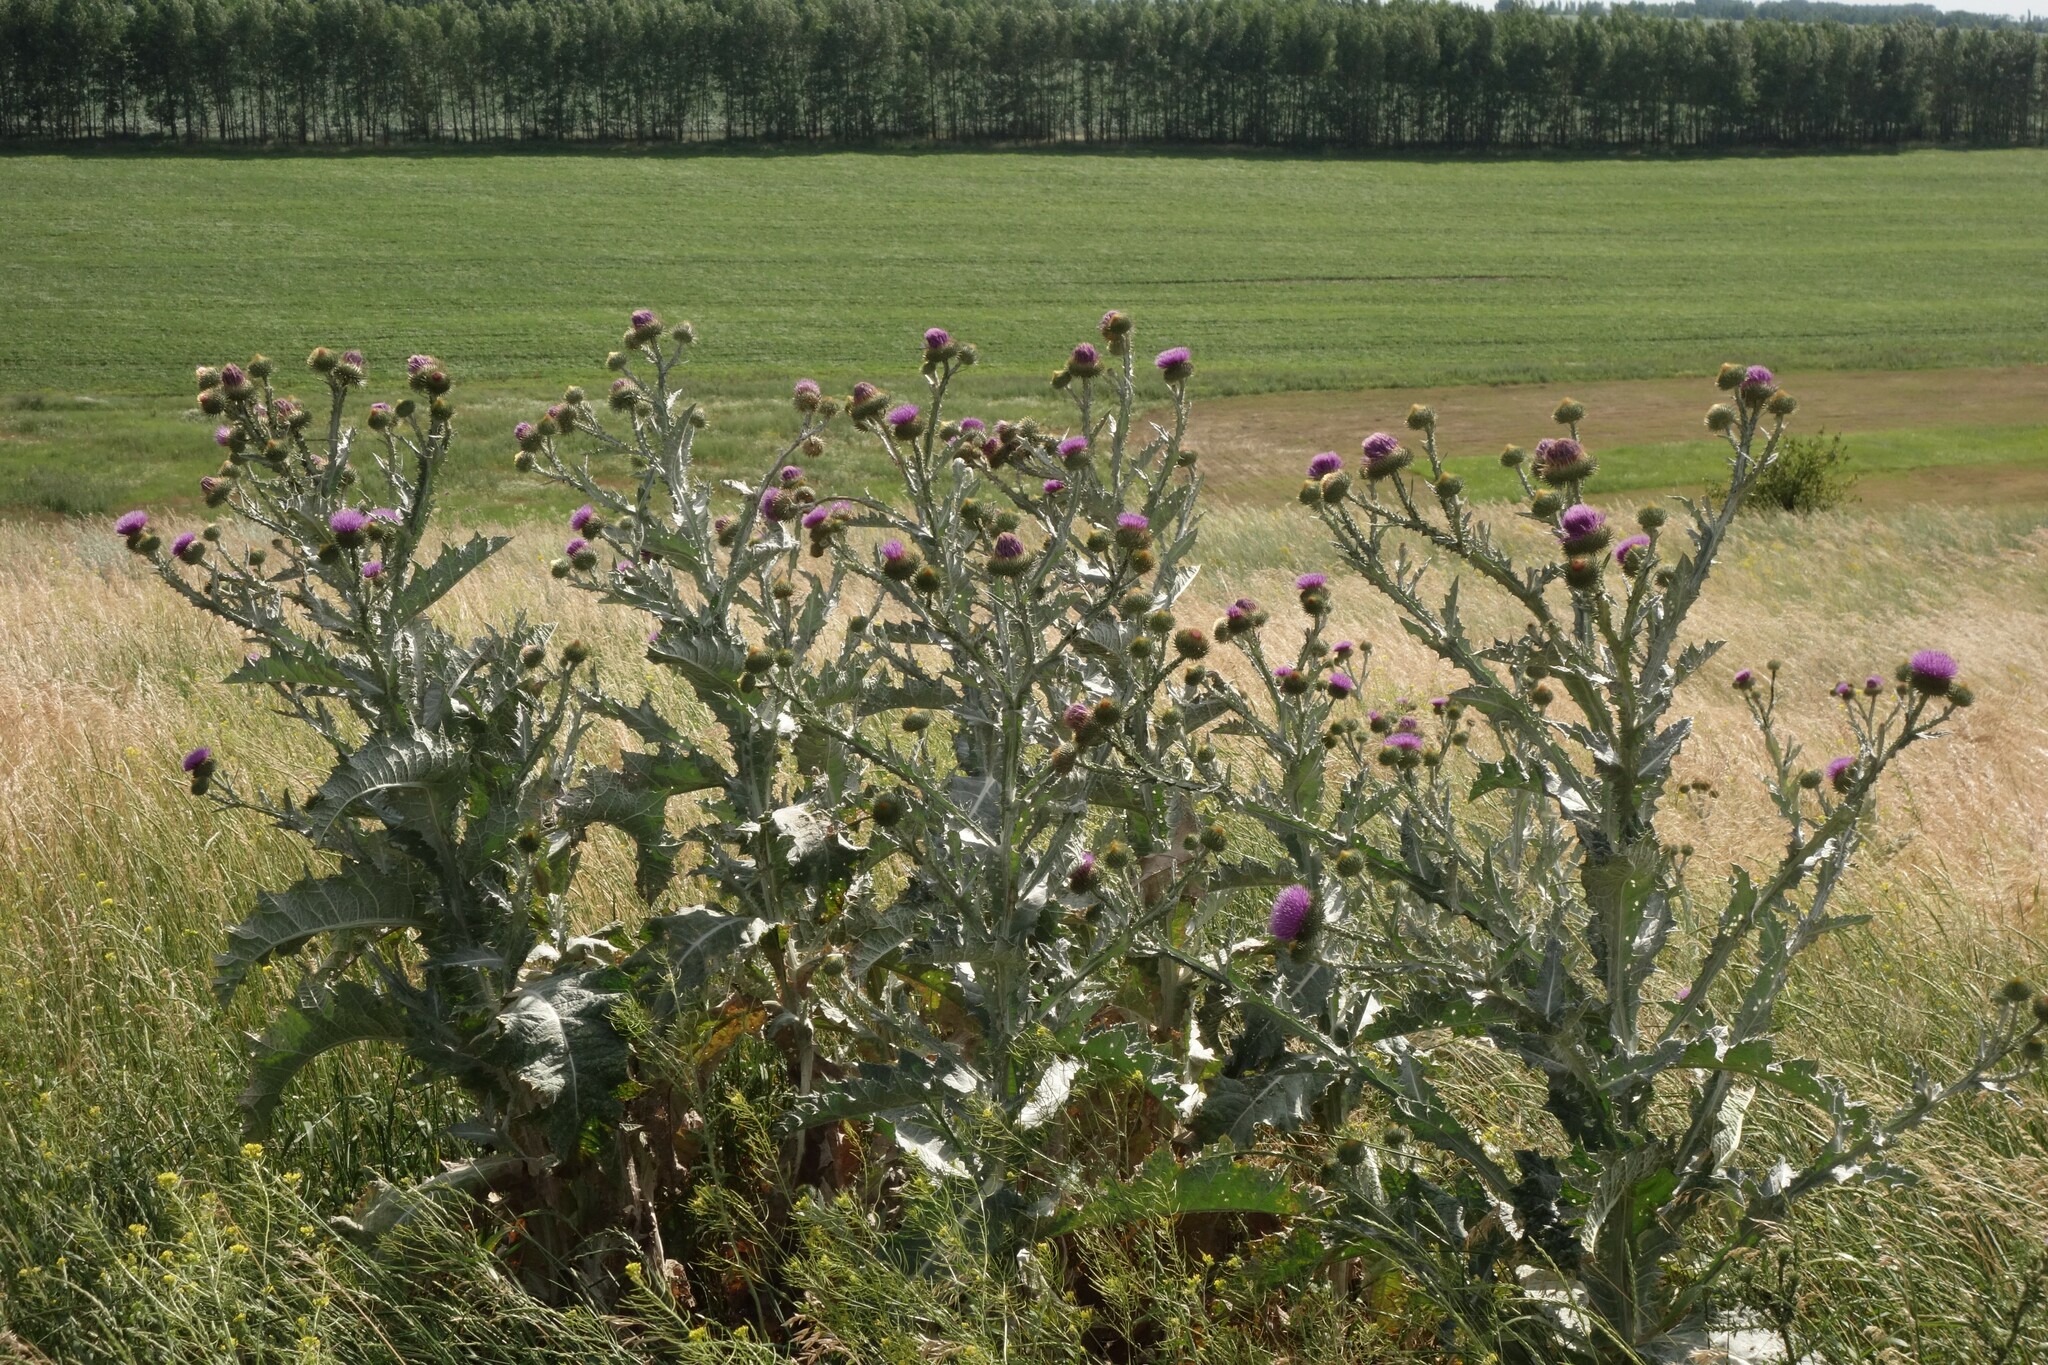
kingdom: Plantae
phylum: Tracheophyta
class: Magnoliopsida
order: Asterales
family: Asteraceae
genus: Onopordum
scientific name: Onopordum acanthium
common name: Scotch thistle
